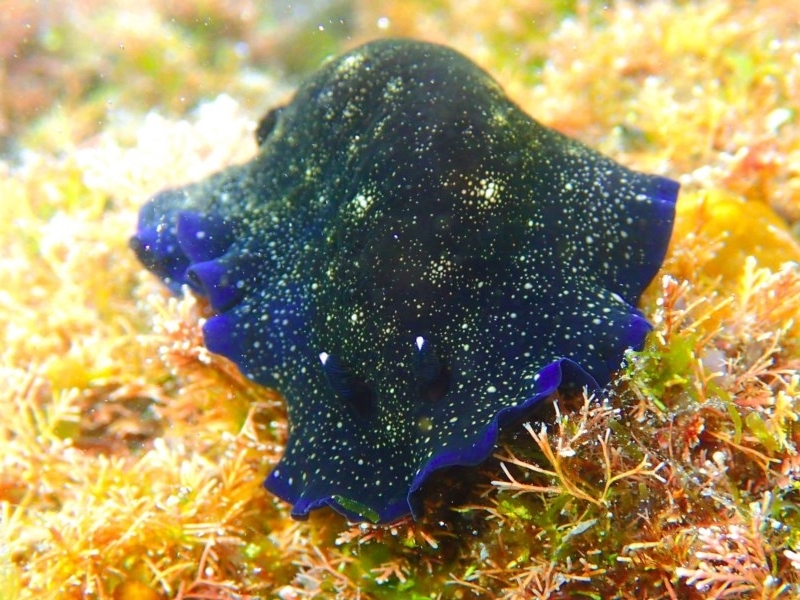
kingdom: Animalia
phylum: Mollusca
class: Gastropoda
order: Nudibranchia
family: Dendrodorididae
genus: Dendrodoris
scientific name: Dendrodoris nigra
